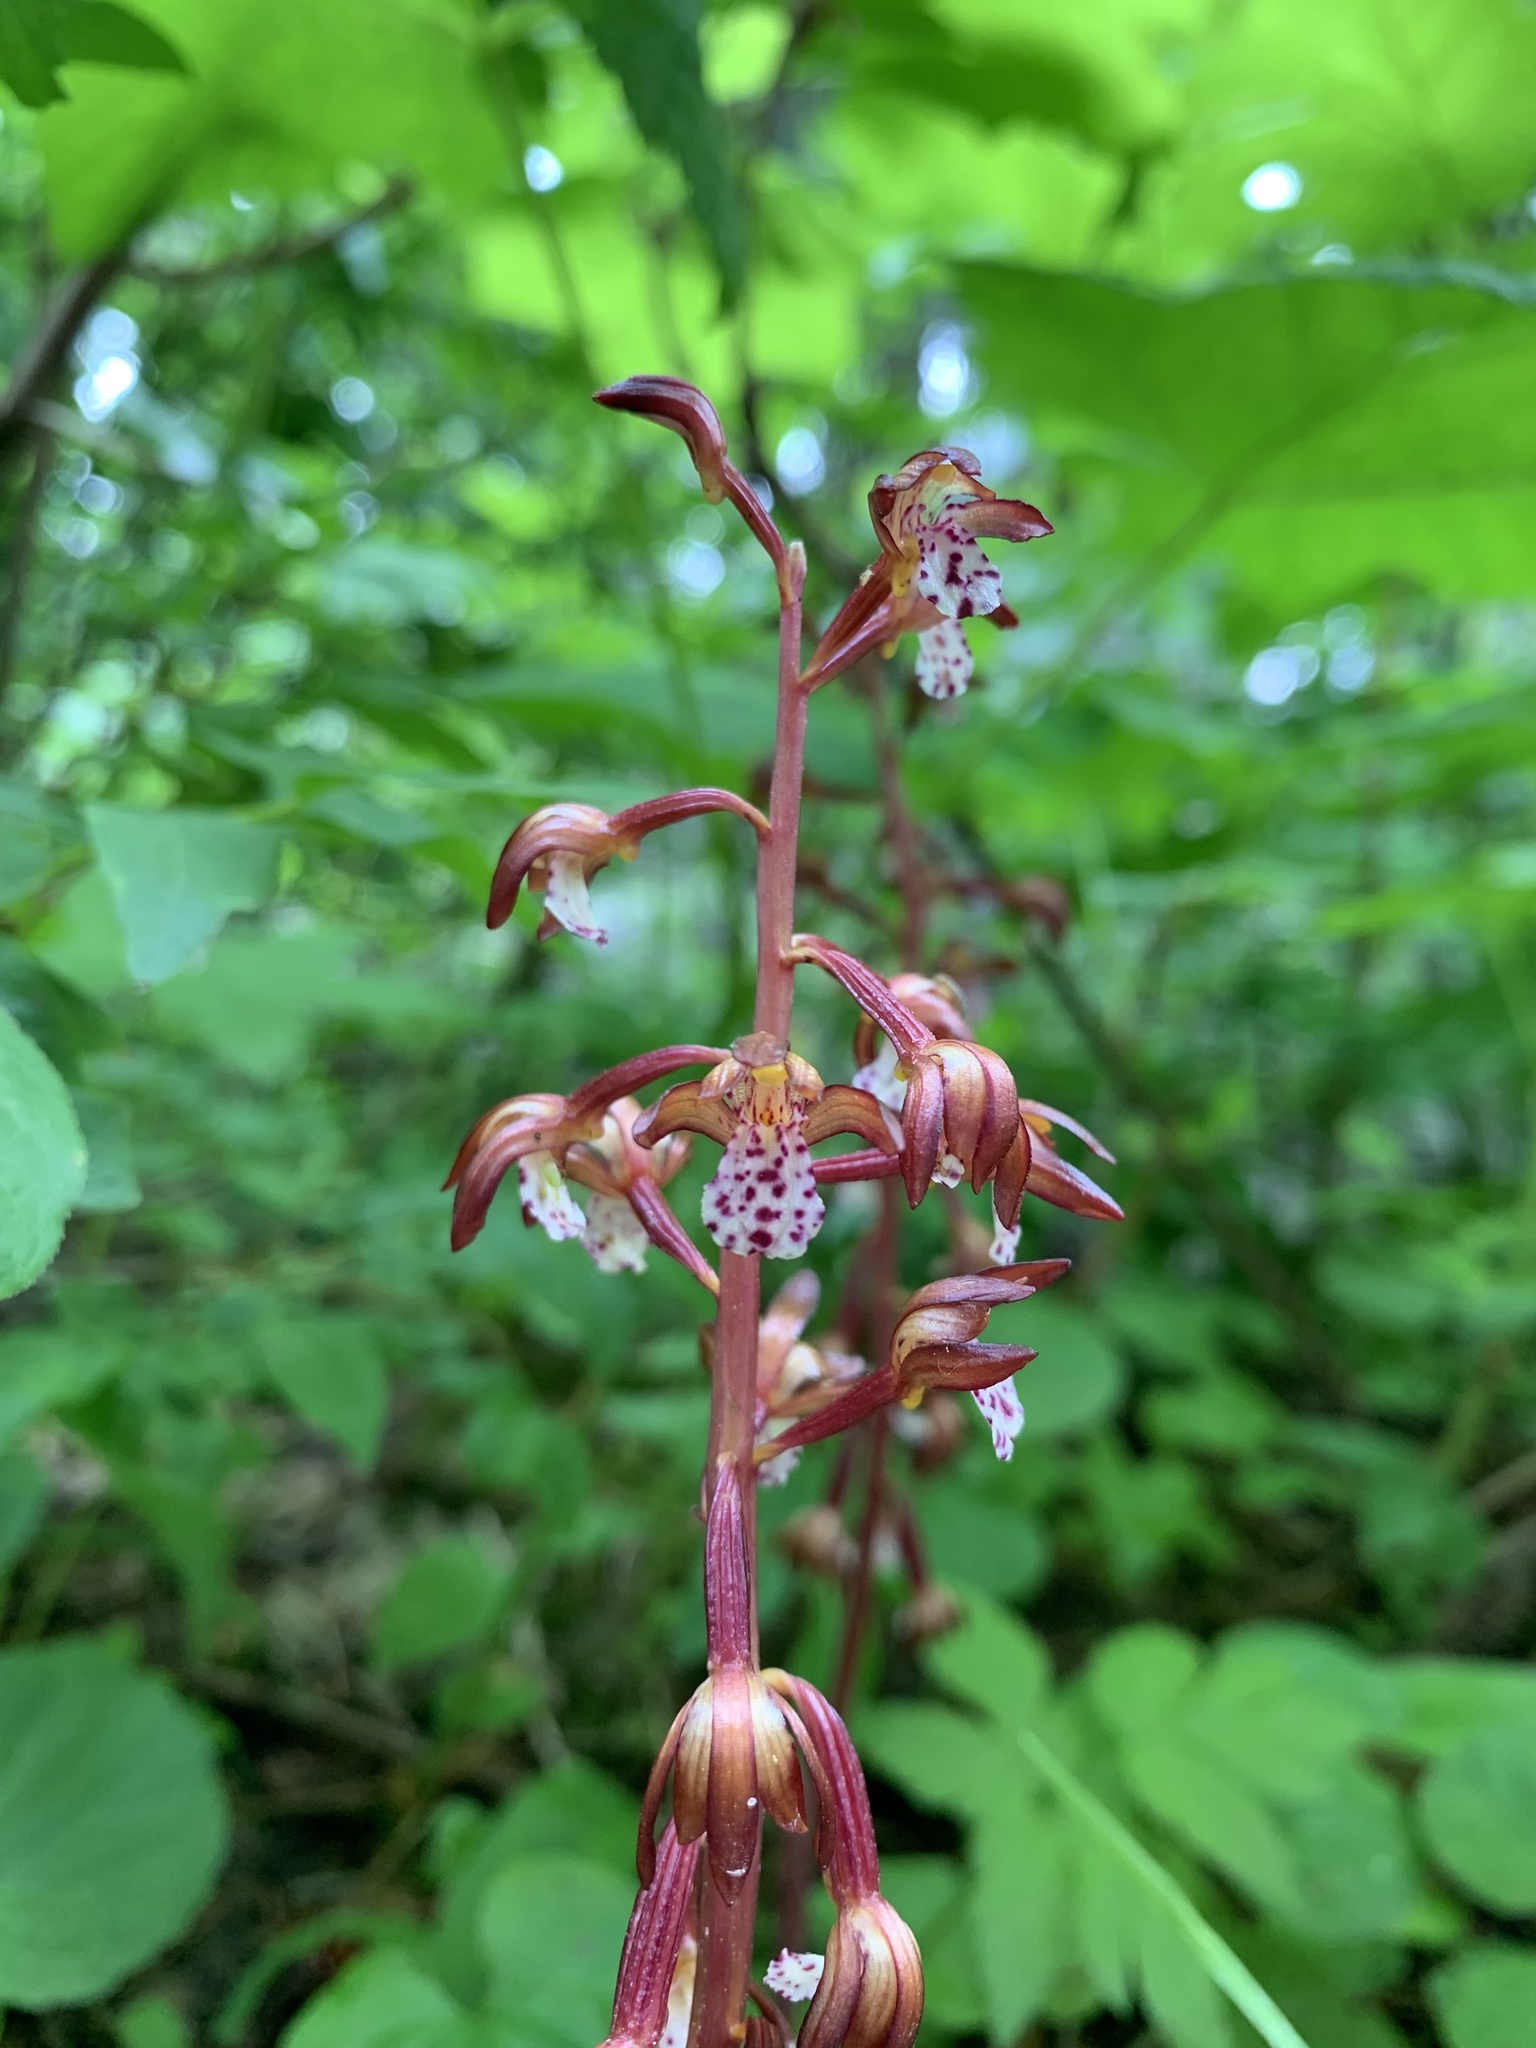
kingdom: Plantae
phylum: Tracheophyta
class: Liliopsida
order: Asparagales
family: Orchidaceae
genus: Corallorhiza
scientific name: Corallorhiza maculata
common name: Spotted coralroot
